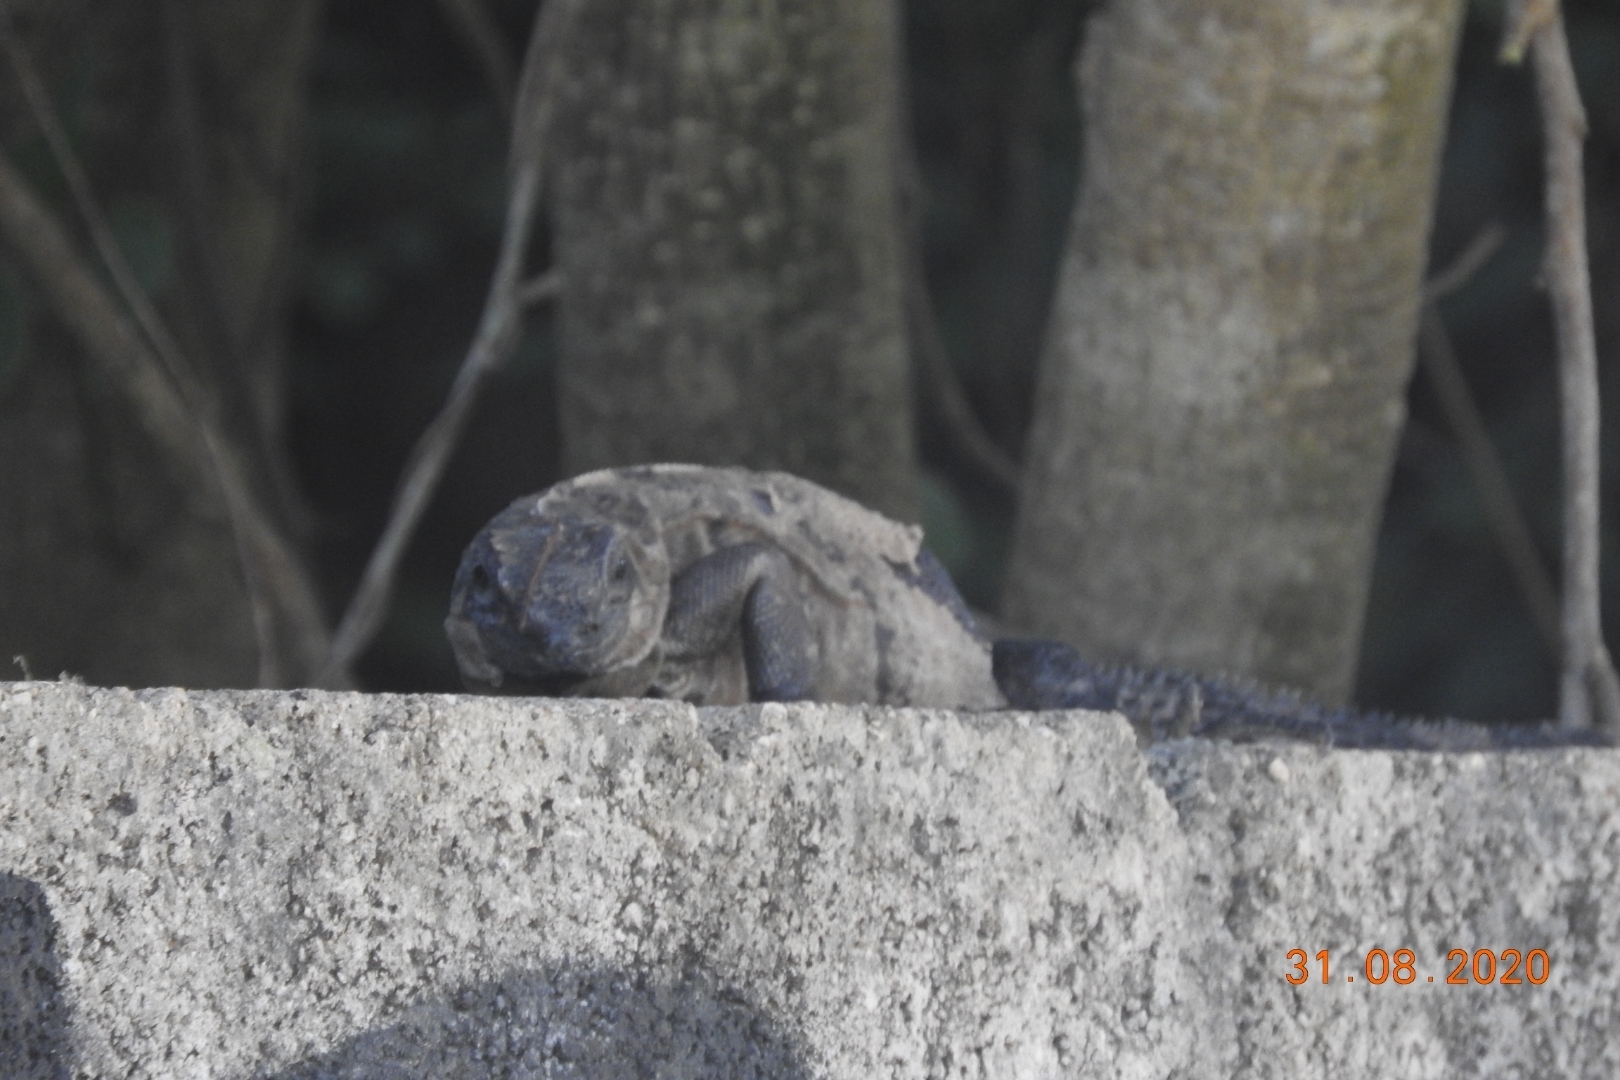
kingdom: Animalia
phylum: Chordata
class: Squamata
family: Iguanidae
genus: Ctenosaura
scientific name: Ctenosaura similis
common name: Black spiny-tailed iguana
